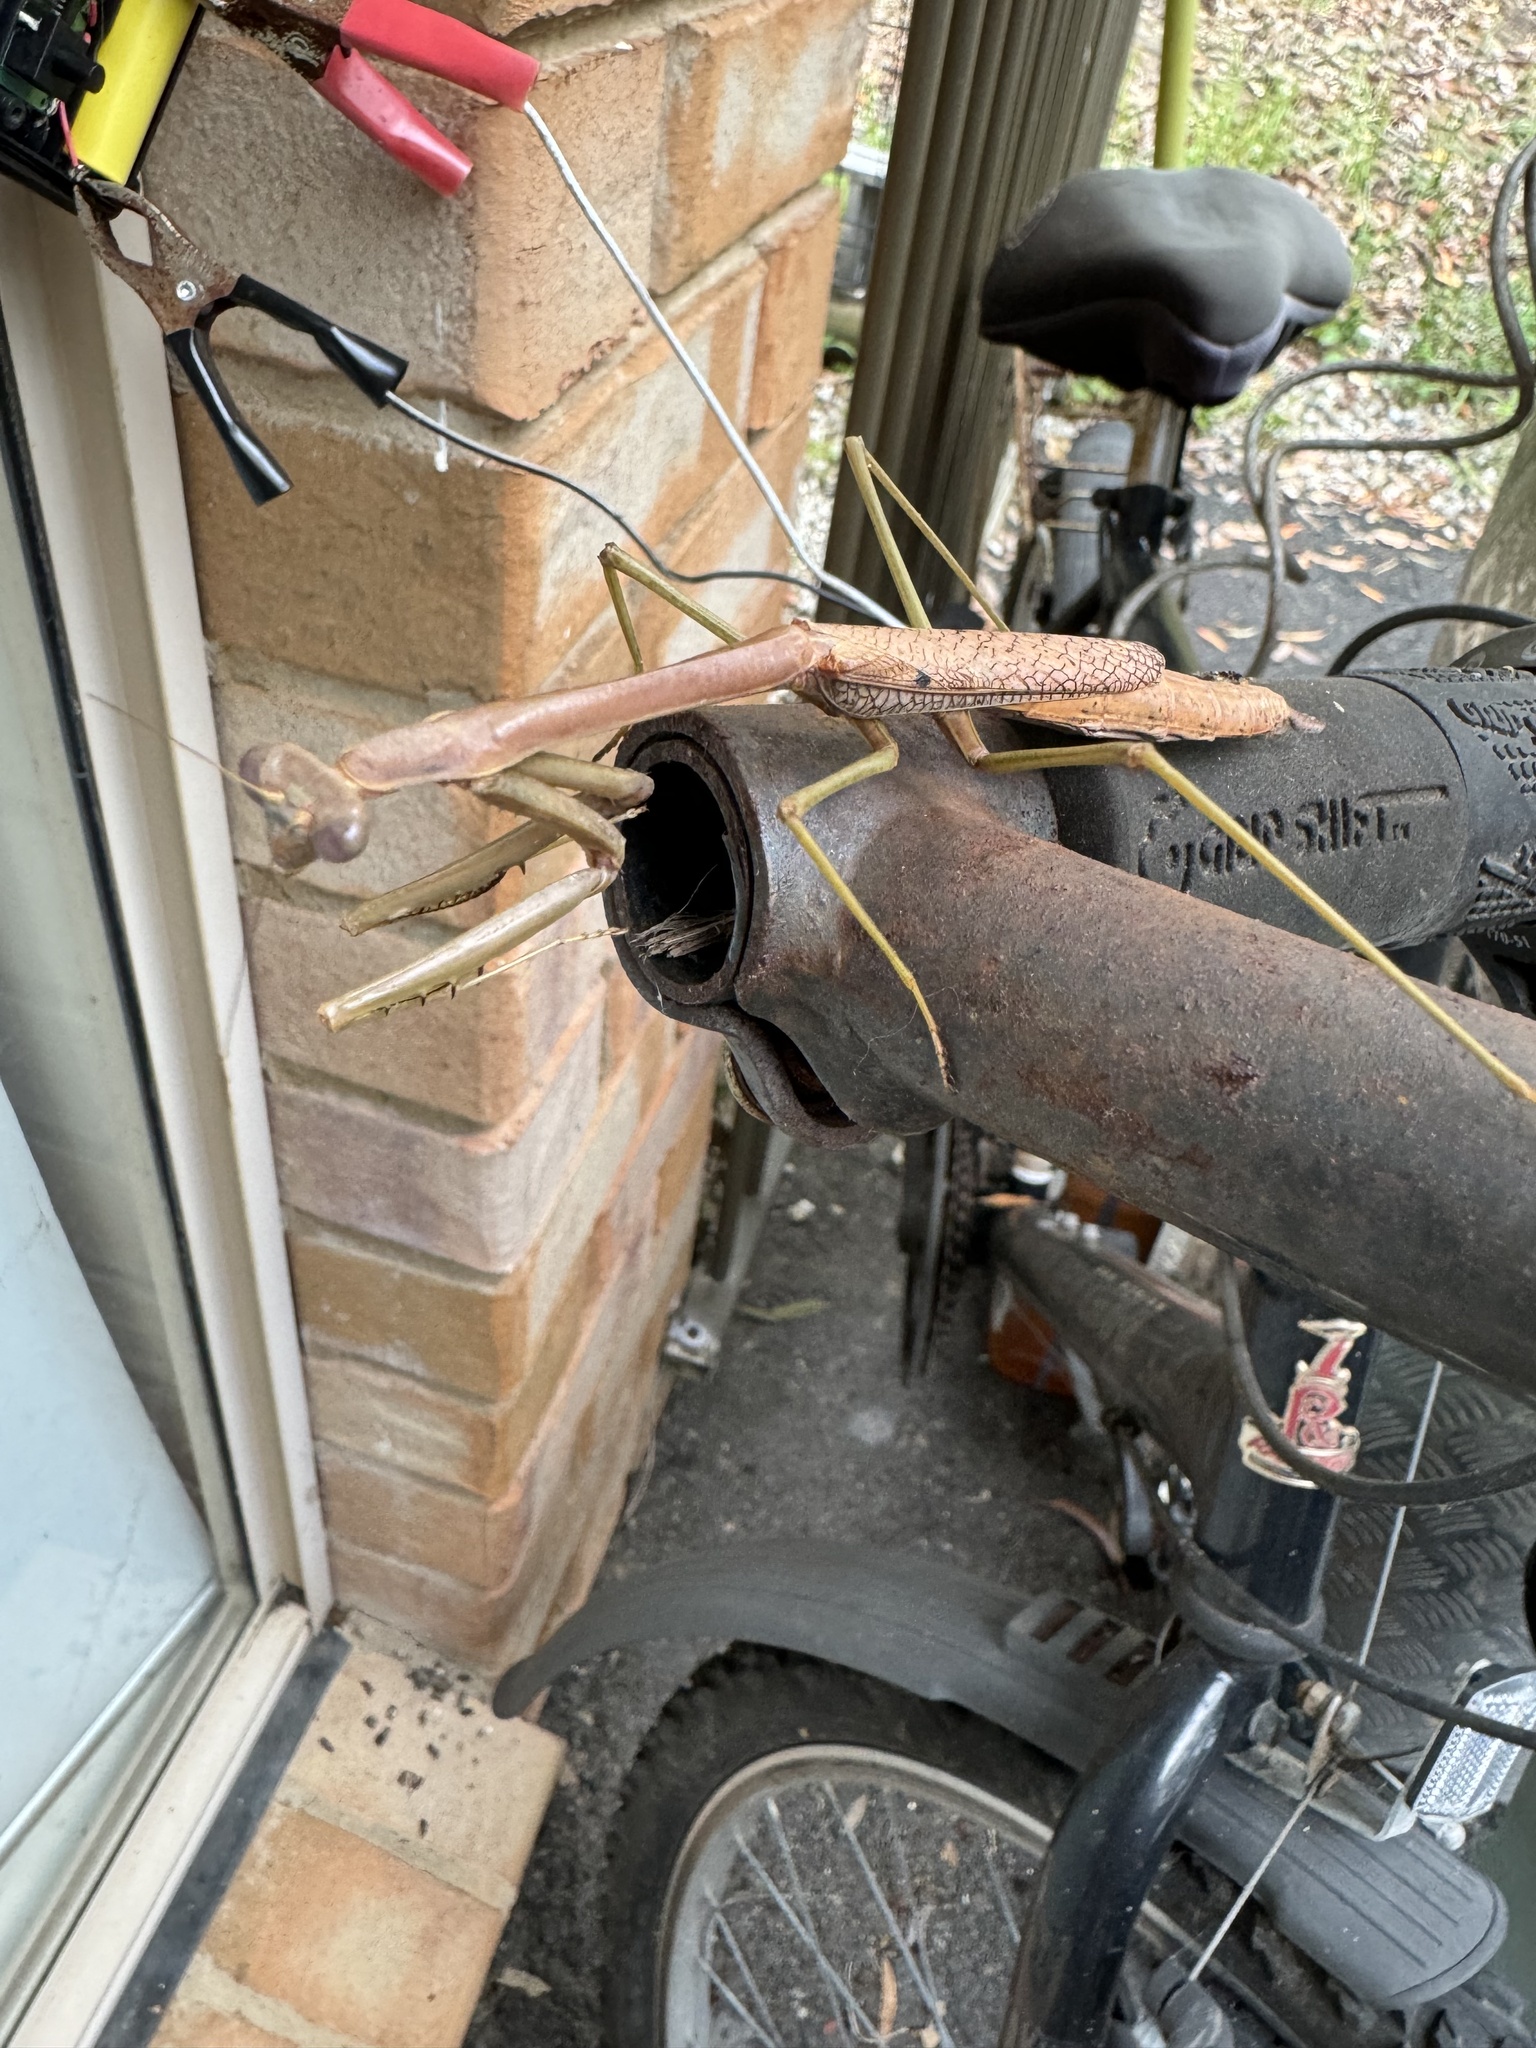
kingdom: Animalia
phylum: Arthropoda
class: Insecta
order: Mantodea
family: Mantidae
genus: Archimantis
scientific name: Archimantis latistyla
